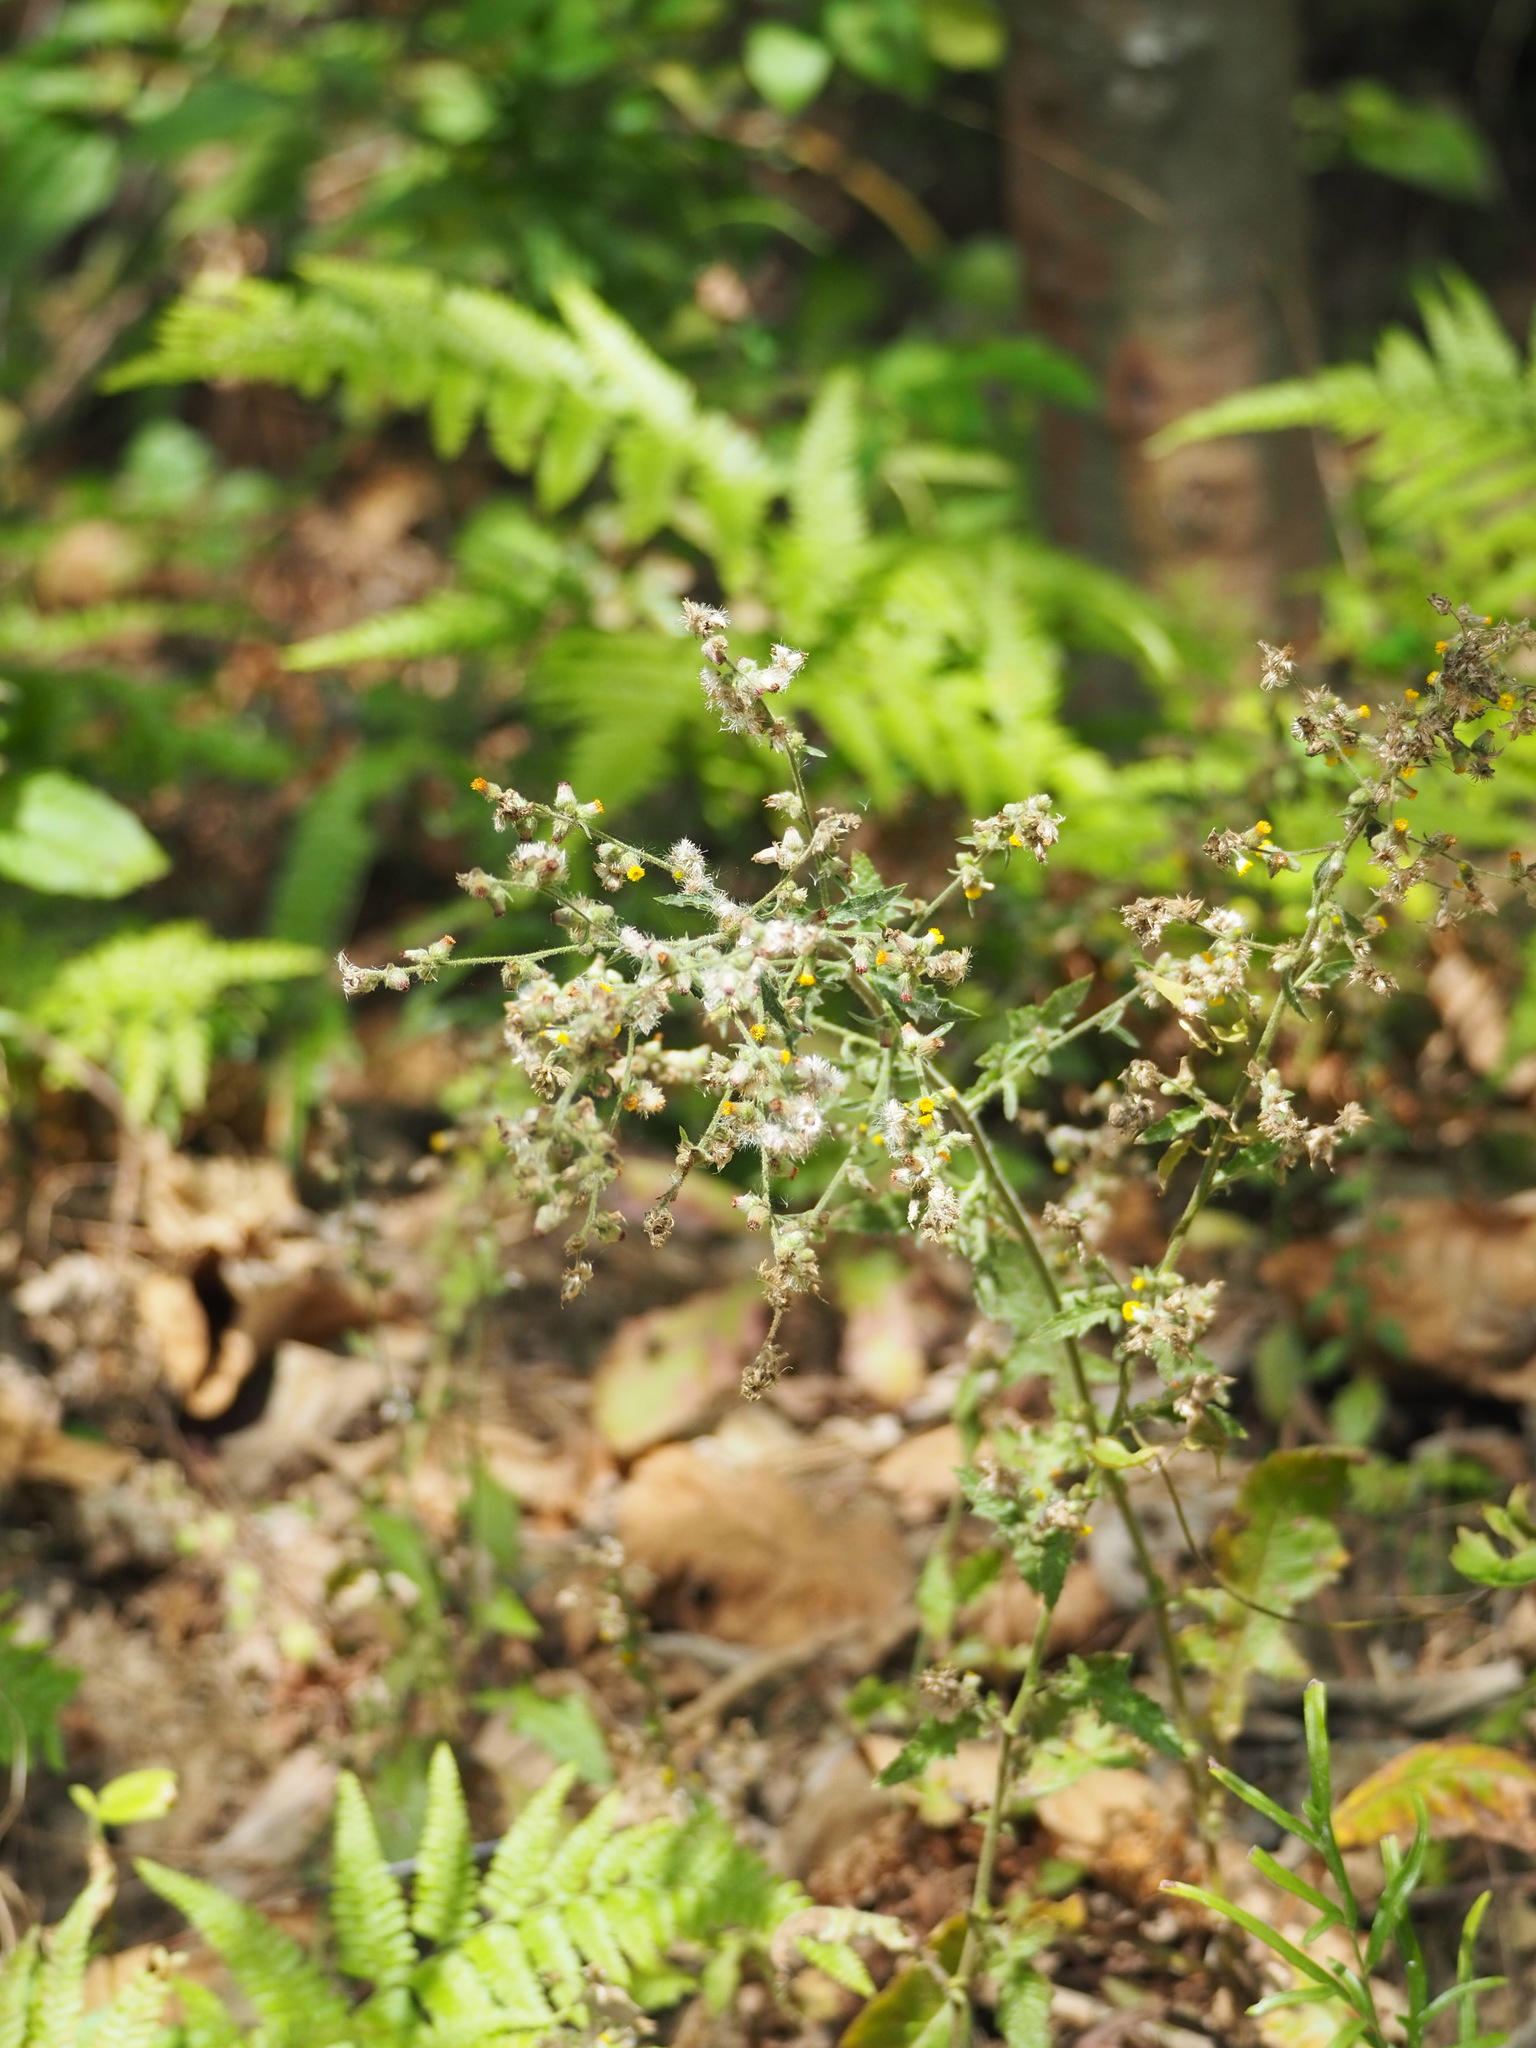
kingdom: Plantae
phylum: Tracheophyta
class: Magnoliopsida
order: Asterales
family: Asteraceae
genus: Blumea
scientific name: Blumea sinuata
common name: Cutleaf false oxtongue
